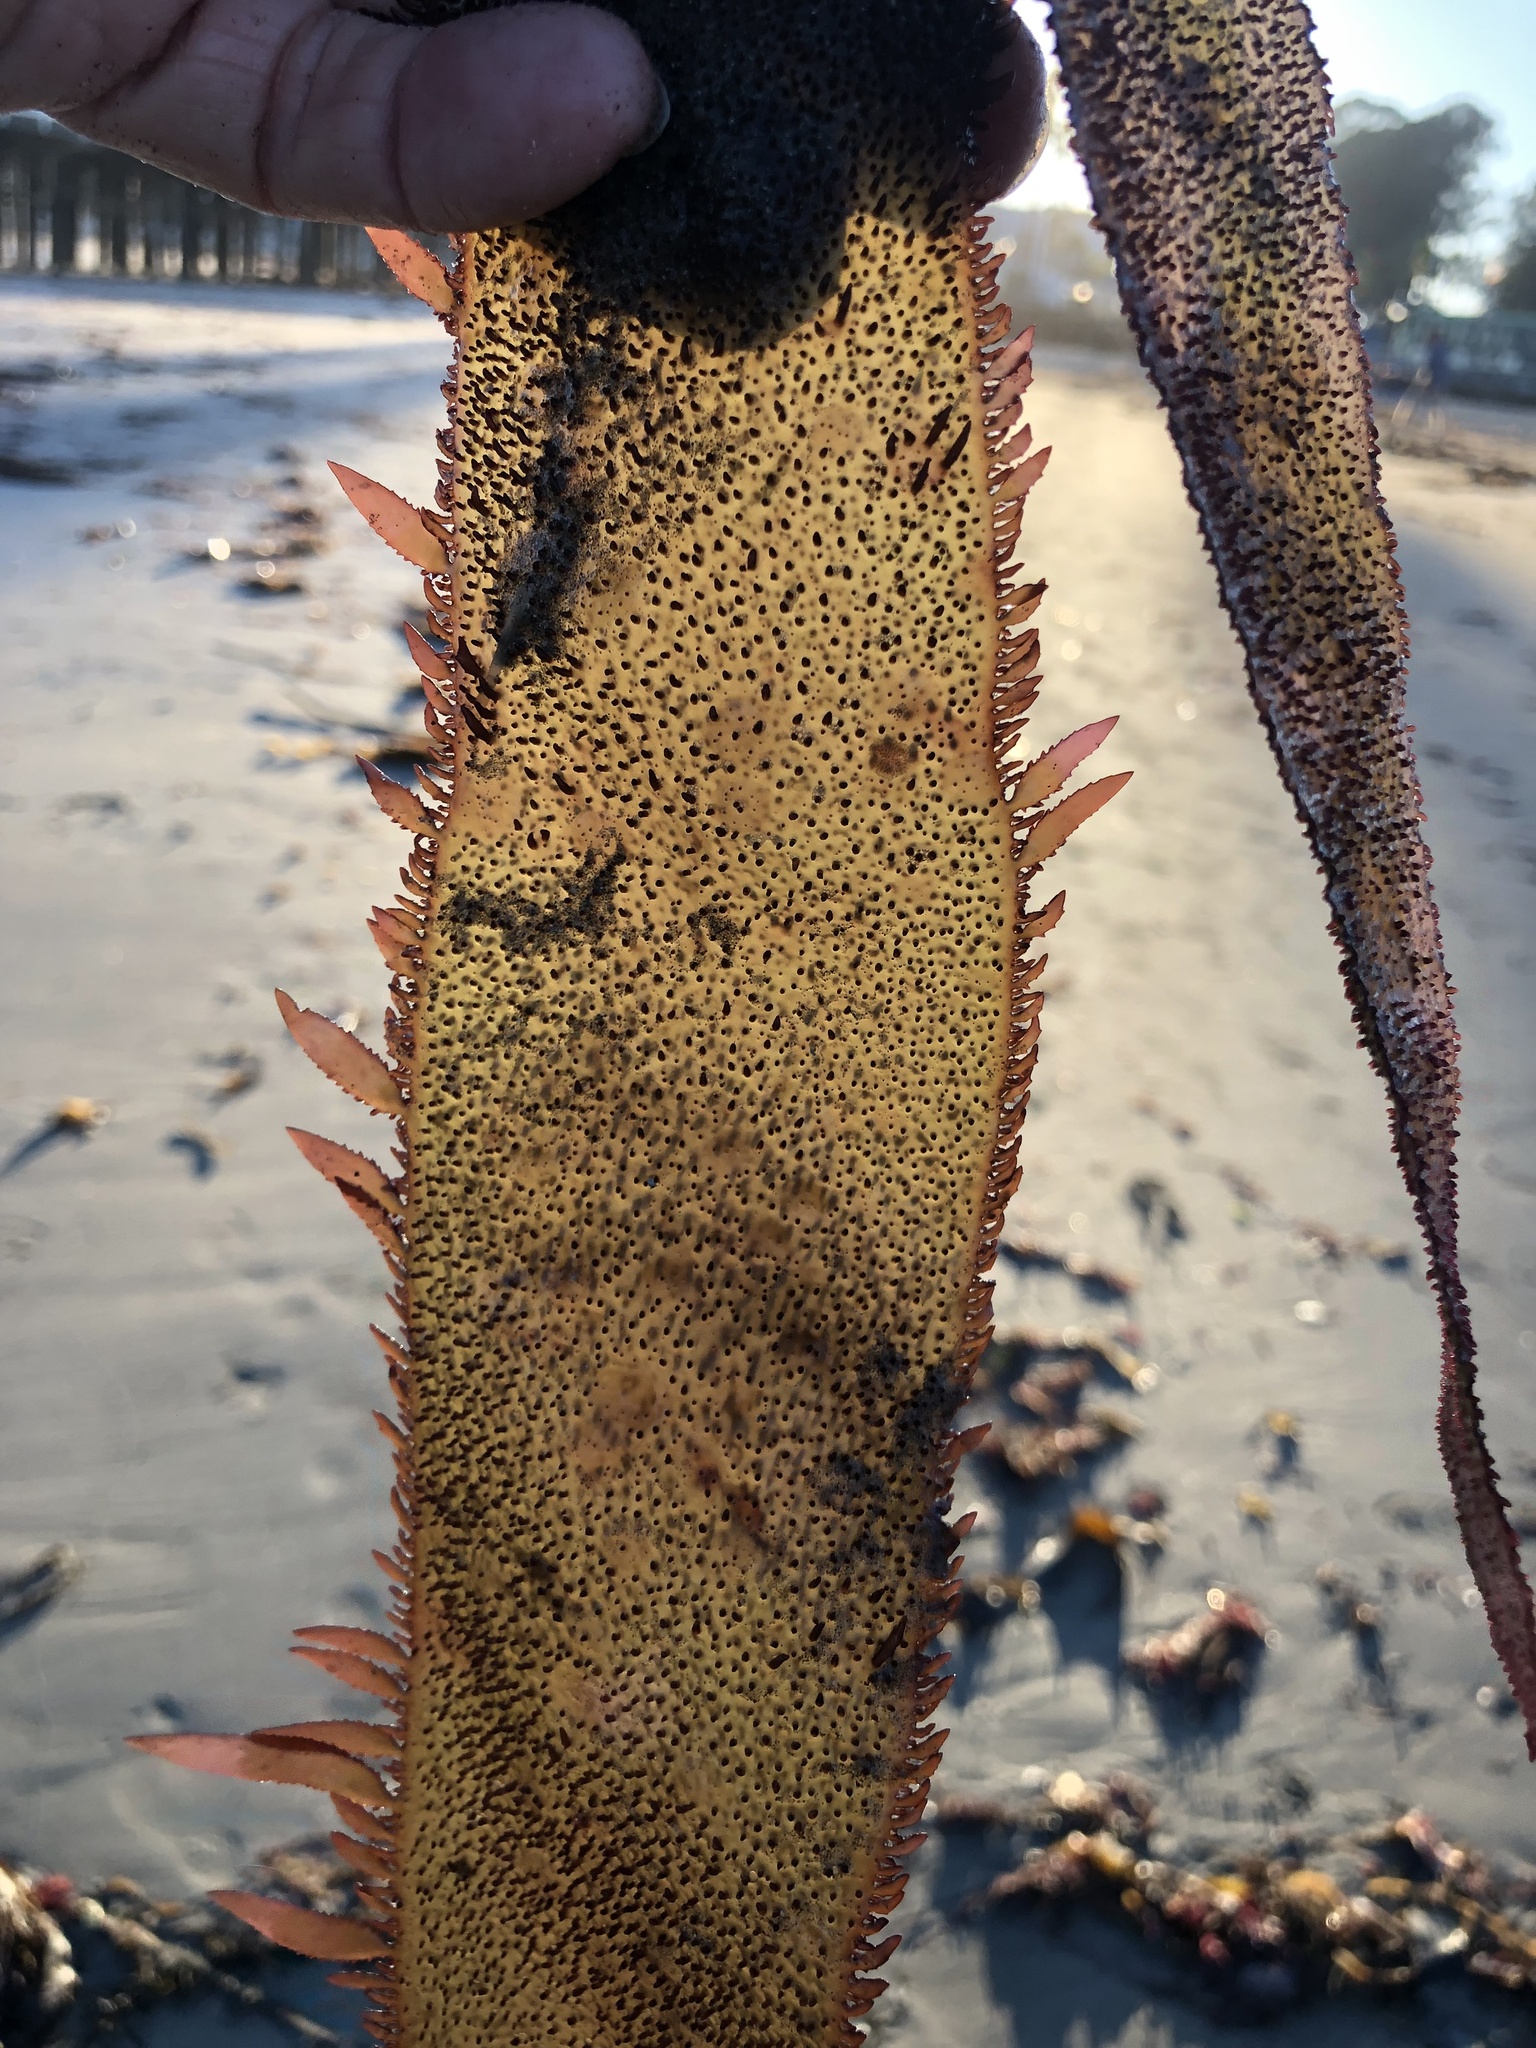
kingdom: Plantae
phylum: Rhodophyta
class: Florideophyceae
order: Gigartinales
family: Gigartinaceae
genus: Chondracanthus
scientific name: Chondracanthus harveyanus
